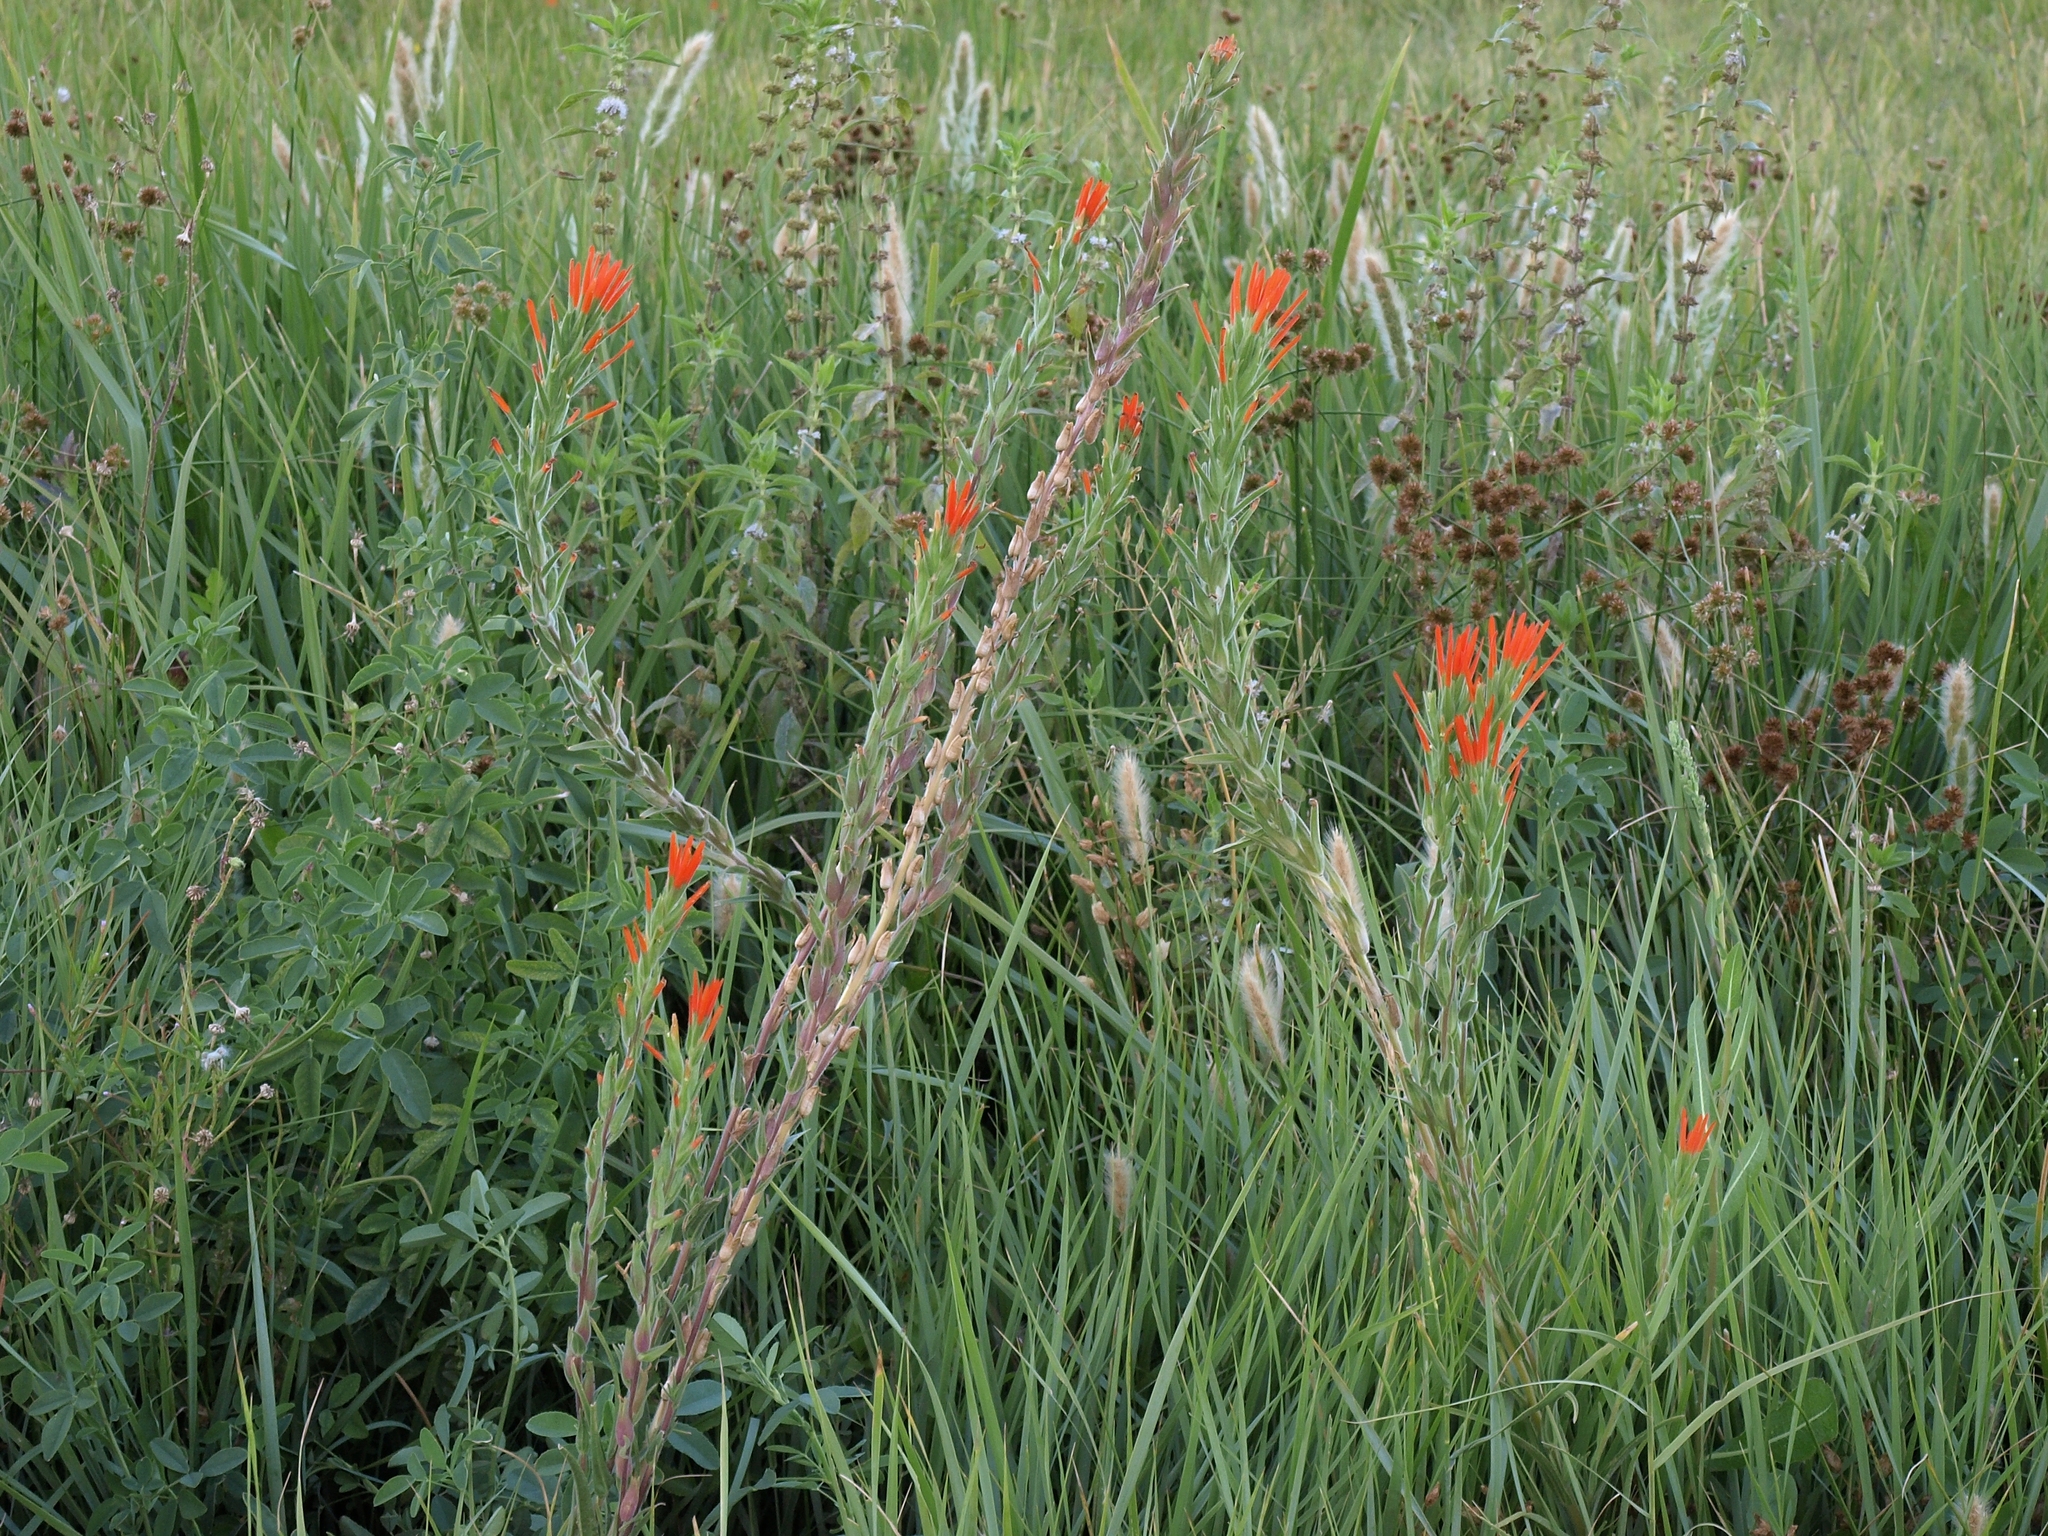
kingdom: Plantae
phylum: Tracheophyta
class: Liliopsida
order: Poales
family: Poaceae
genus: Polypogon
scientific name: Polypogon monspeliensis
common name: Annual rabbitsfoot grass
